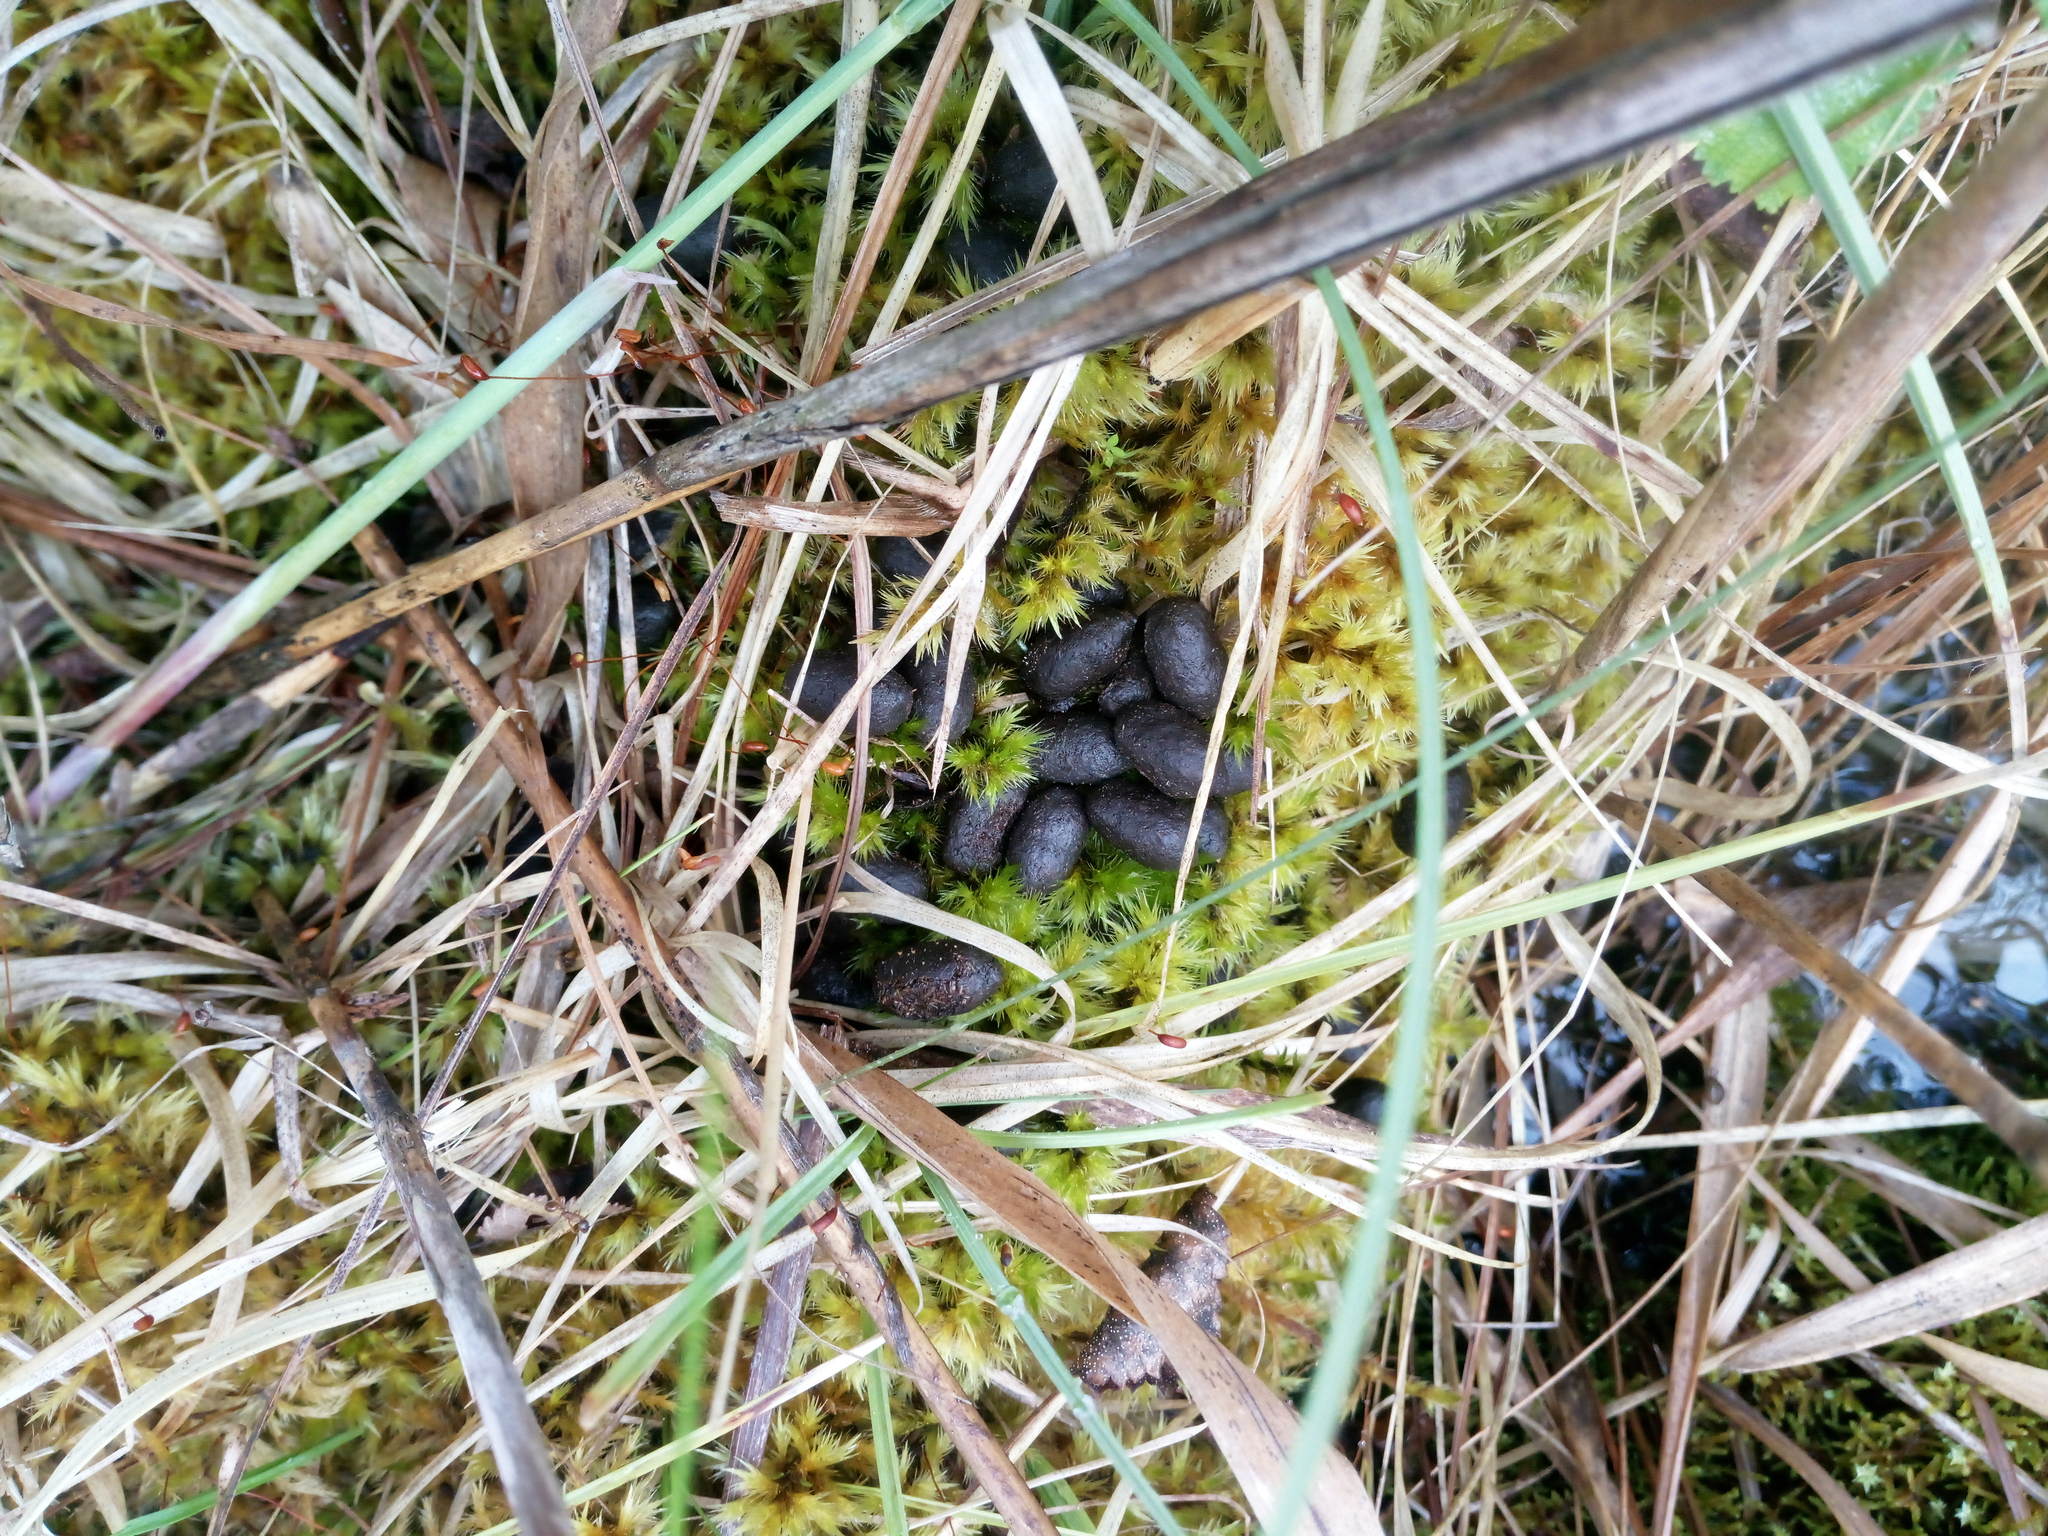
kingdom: Animalia
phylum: Chordata
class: Mammalia
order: Artiodactyla
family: Cervidae
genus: Capreolus
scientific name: Capreolus pygargus
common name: Siberian roe
